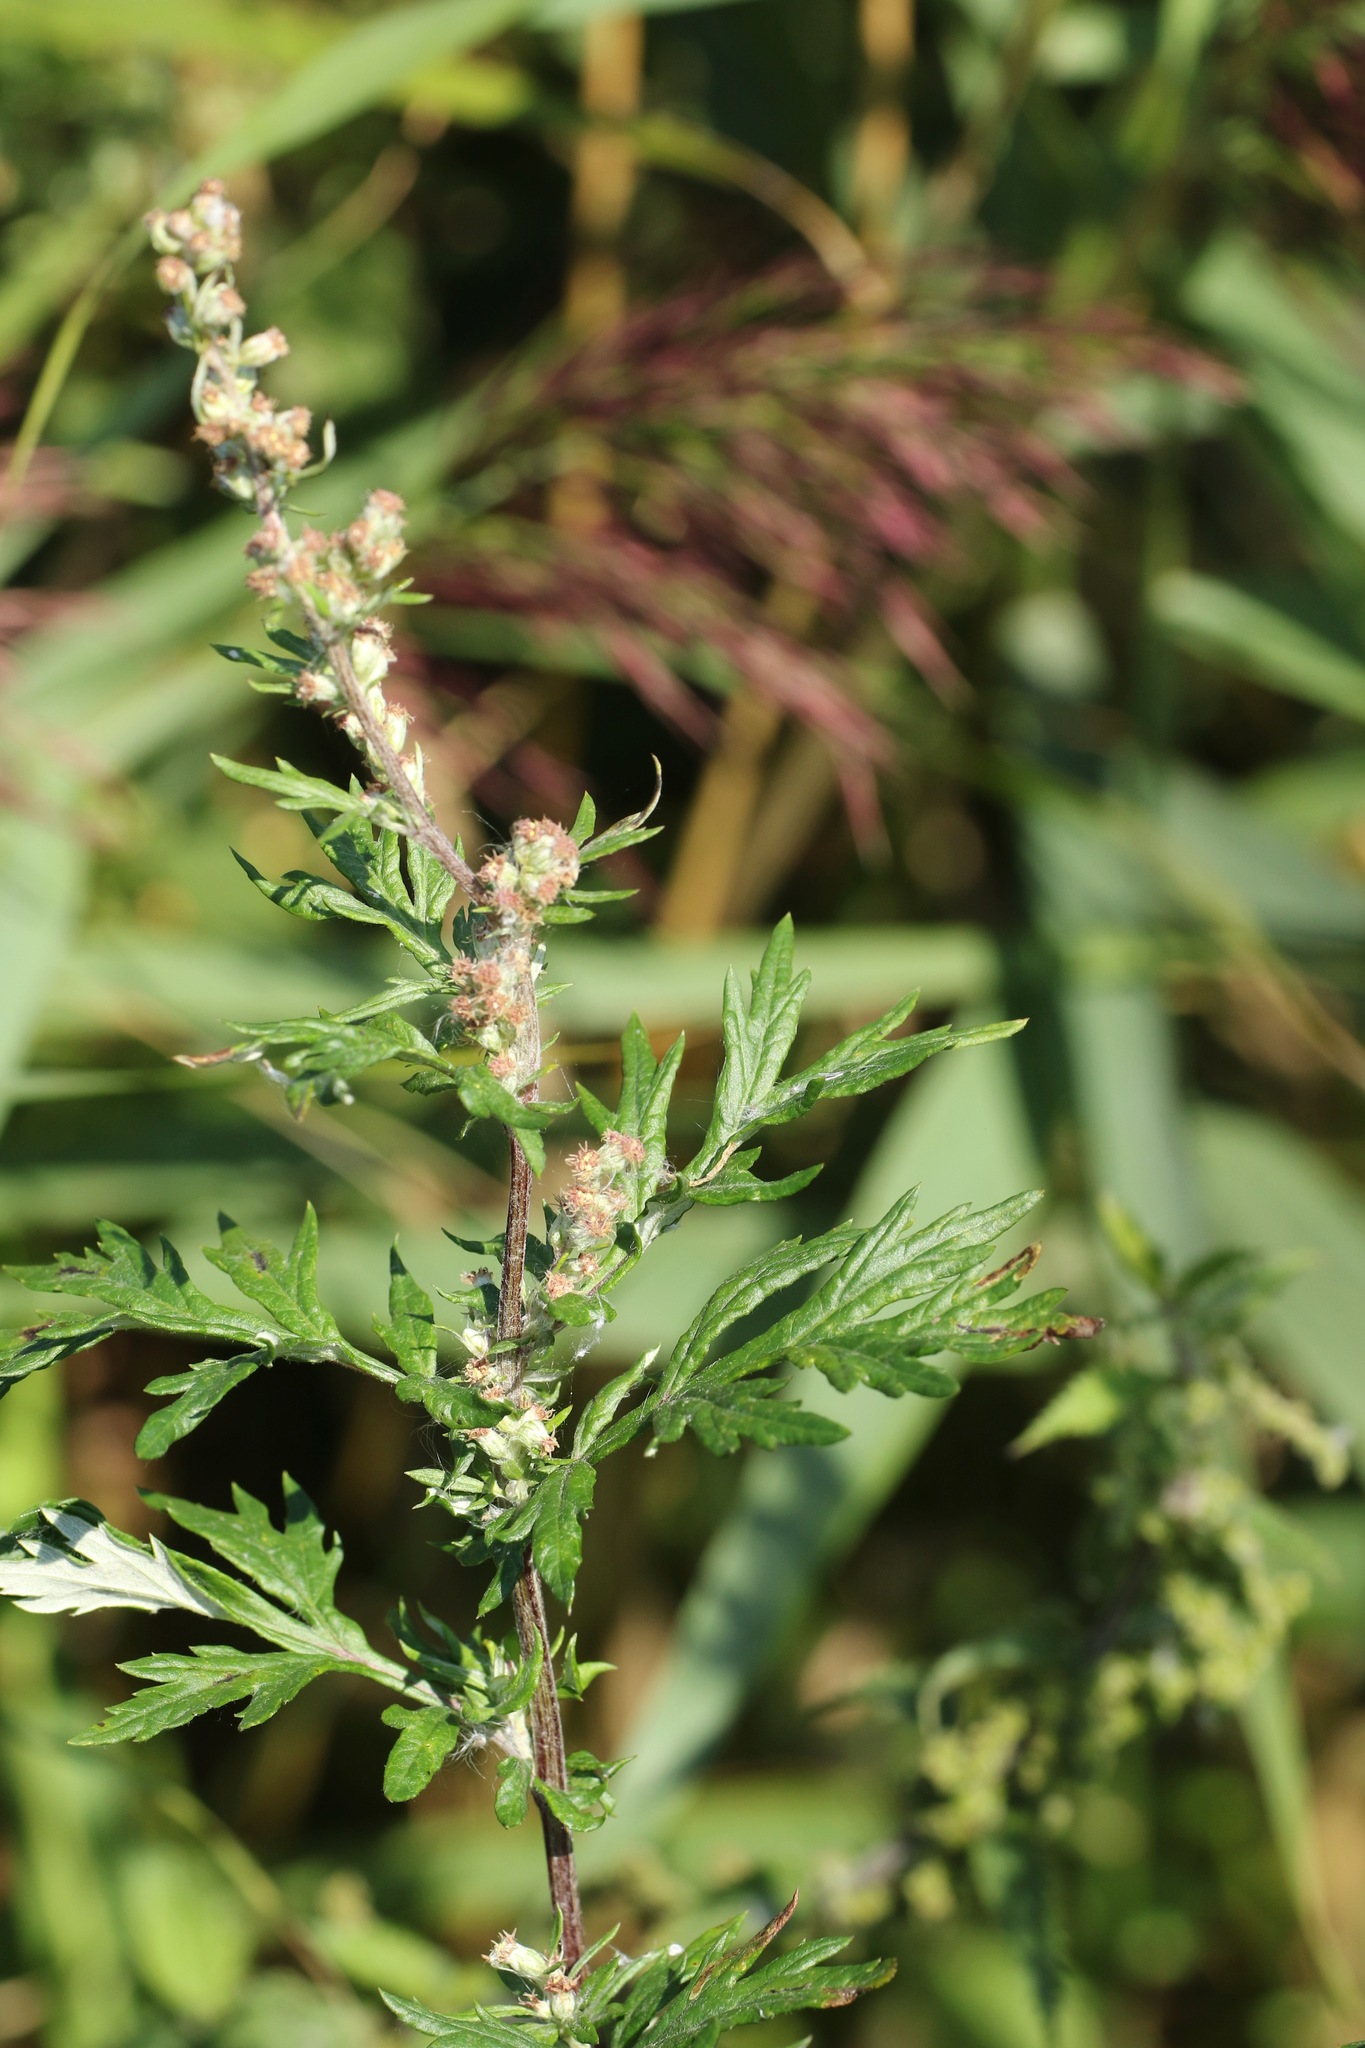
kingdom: Plantae
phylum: Tracheophyta
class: Magnoliopsida
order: Asterales
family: Asteraceae
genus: Artemisia
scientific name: Artemisia vulgaris
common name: Mugwort
